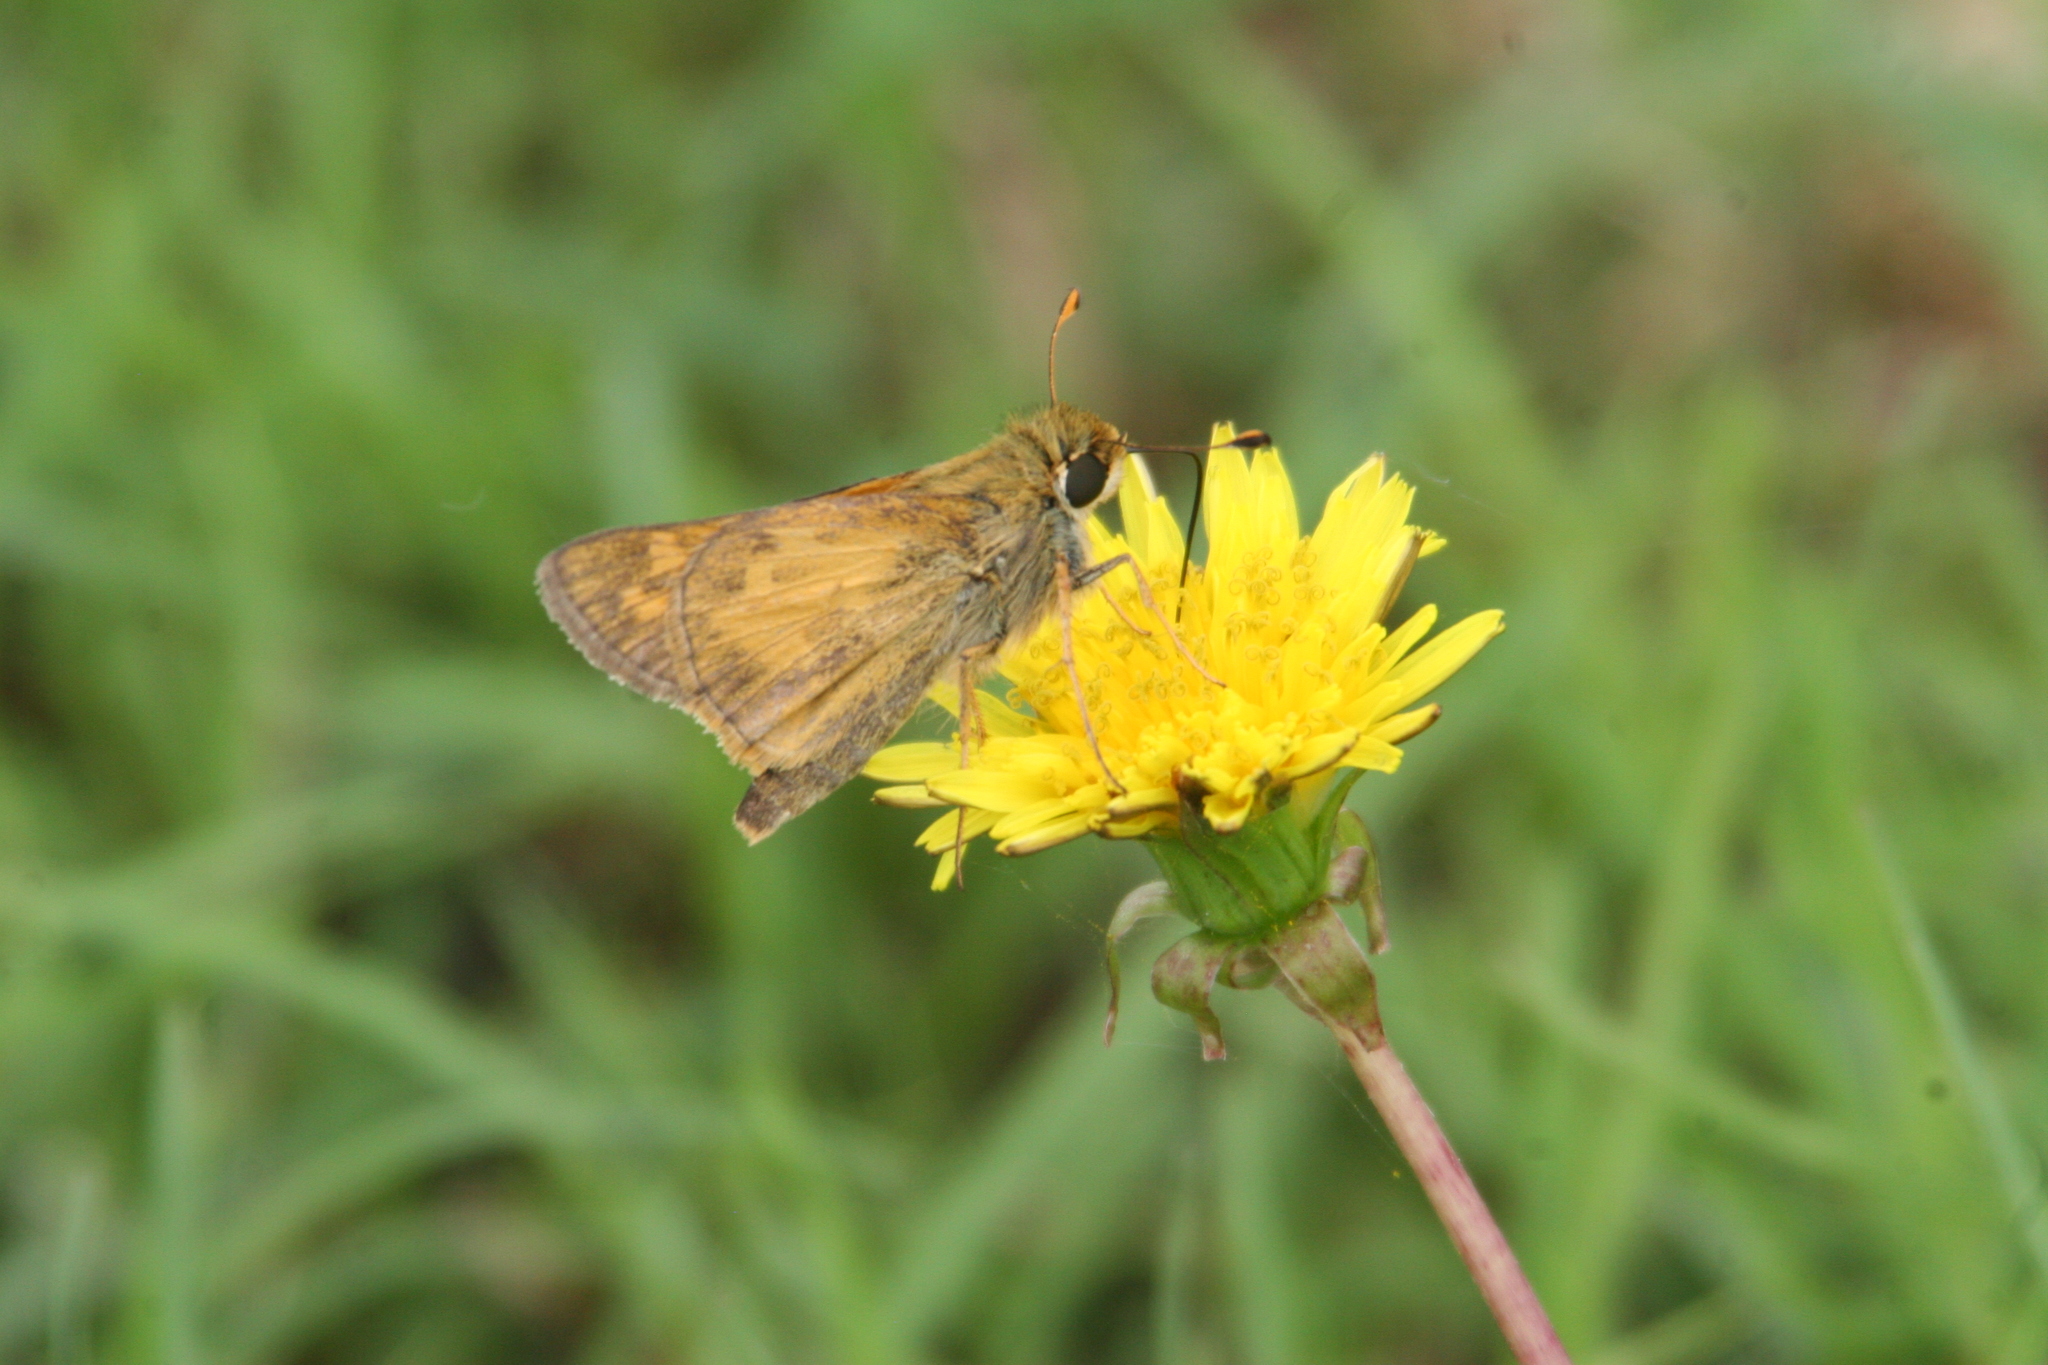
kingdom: Animalia
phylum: Arthropoda
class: Insecta
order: Lepidoptera
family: Hesperiidae
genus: Atalopedes
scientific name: Atalopedes
